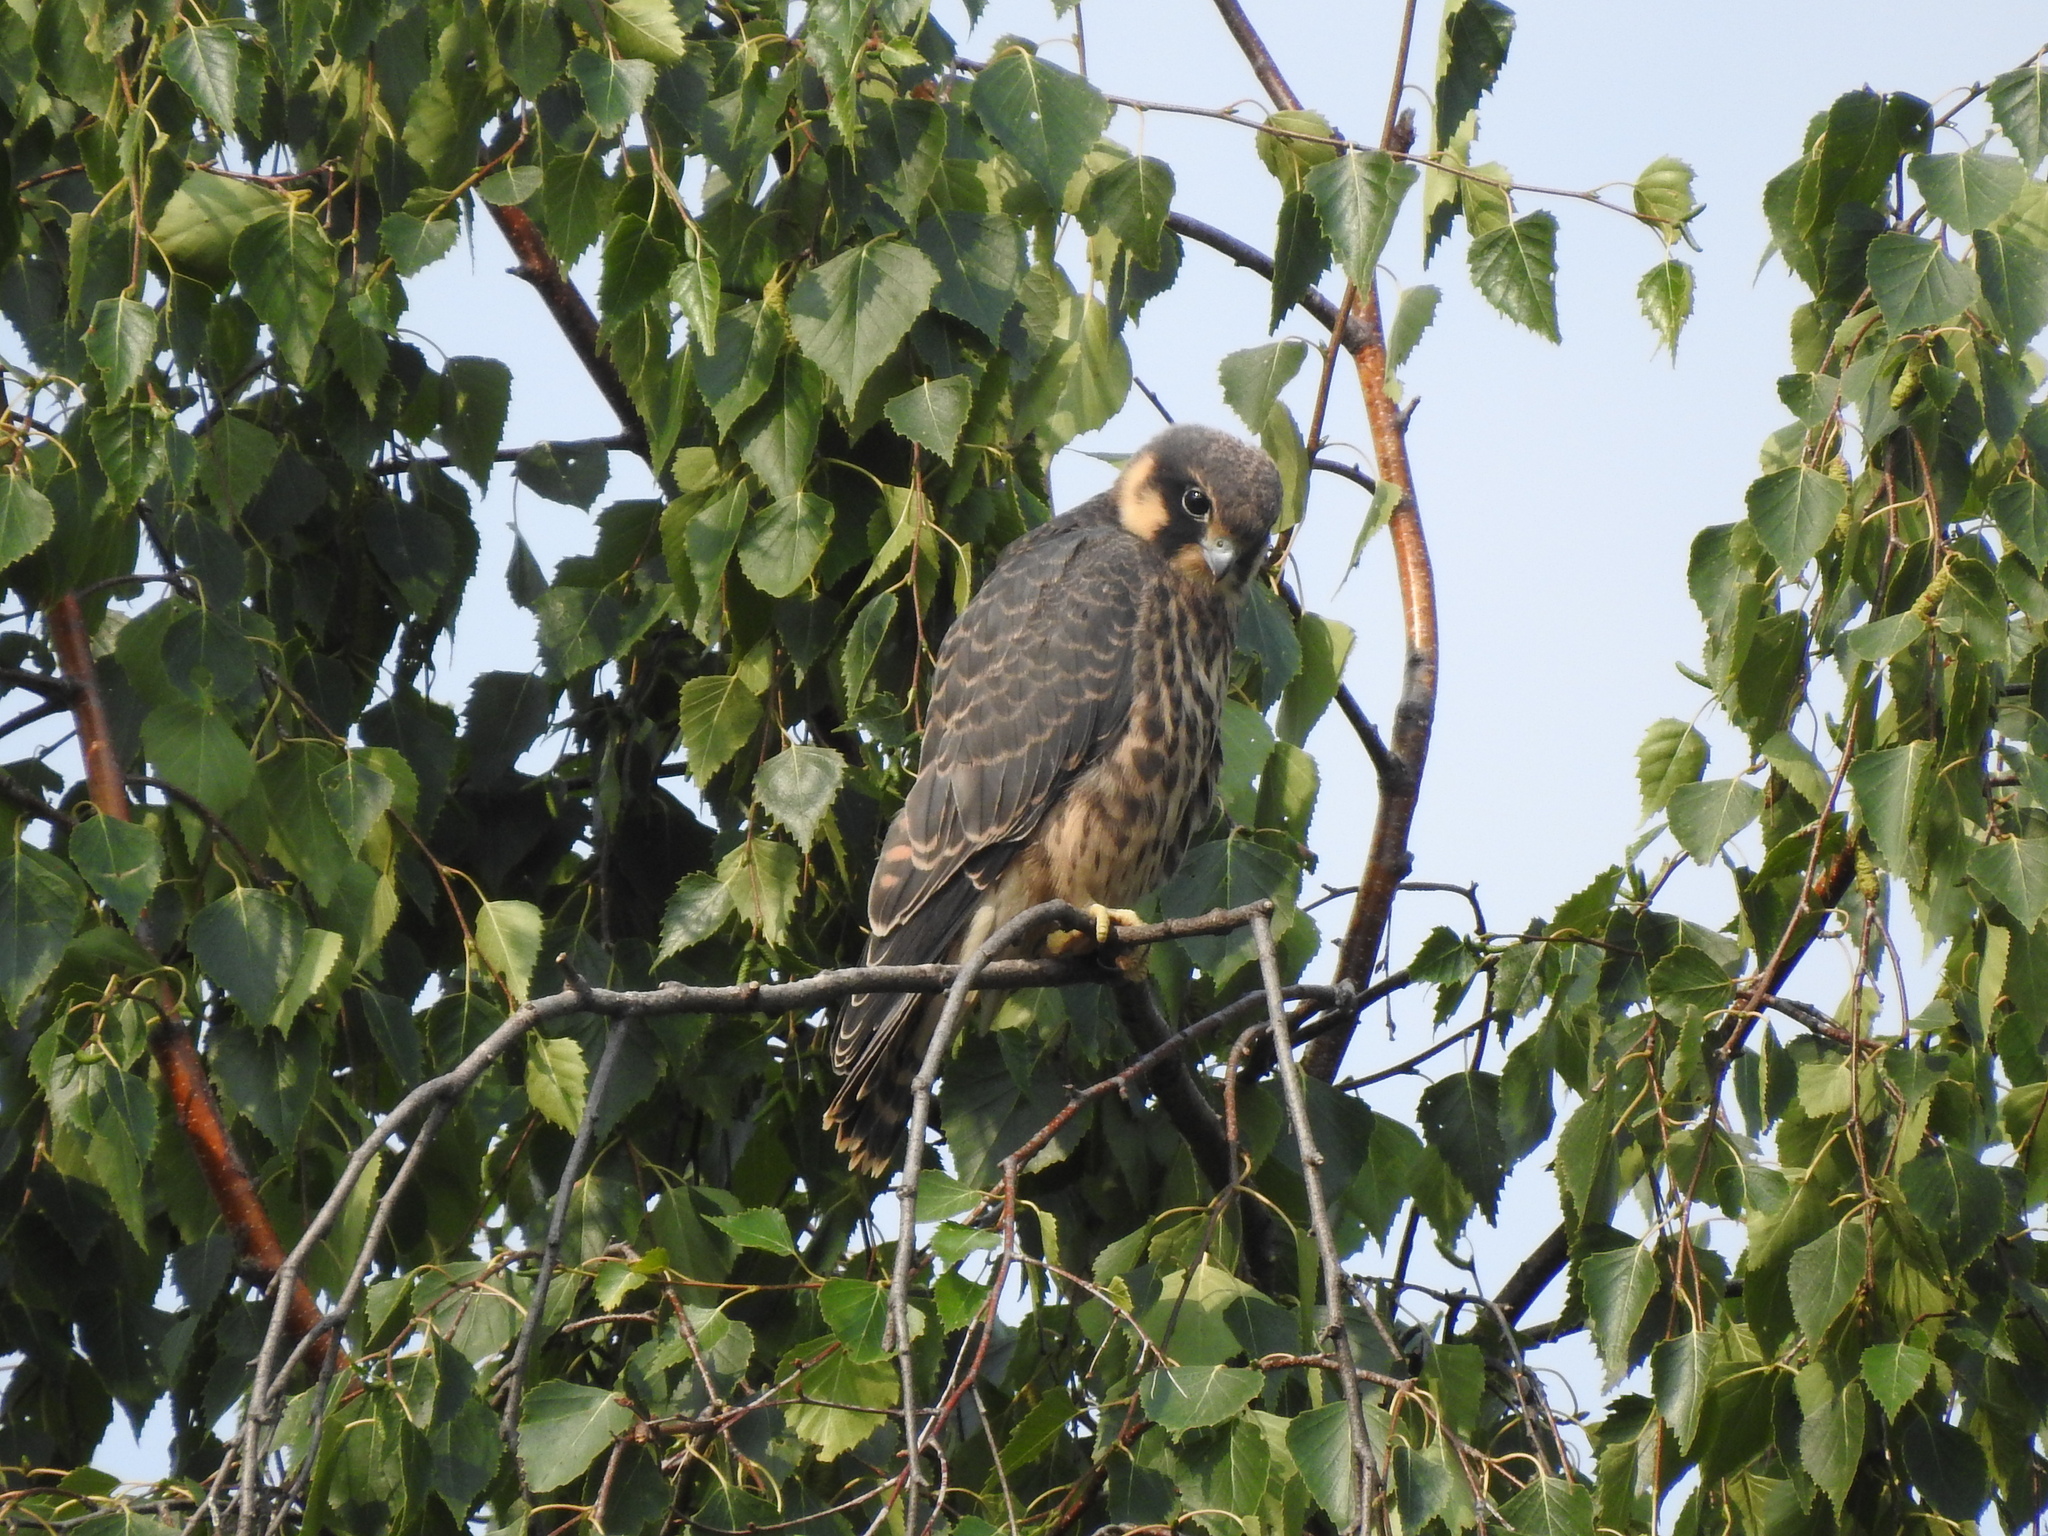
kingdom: Animalia
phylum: Chordata
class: Aves
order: Falconiformes
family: Falconidae
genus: Falco
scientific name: Falco subbuteo
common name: Eurasian hobby
